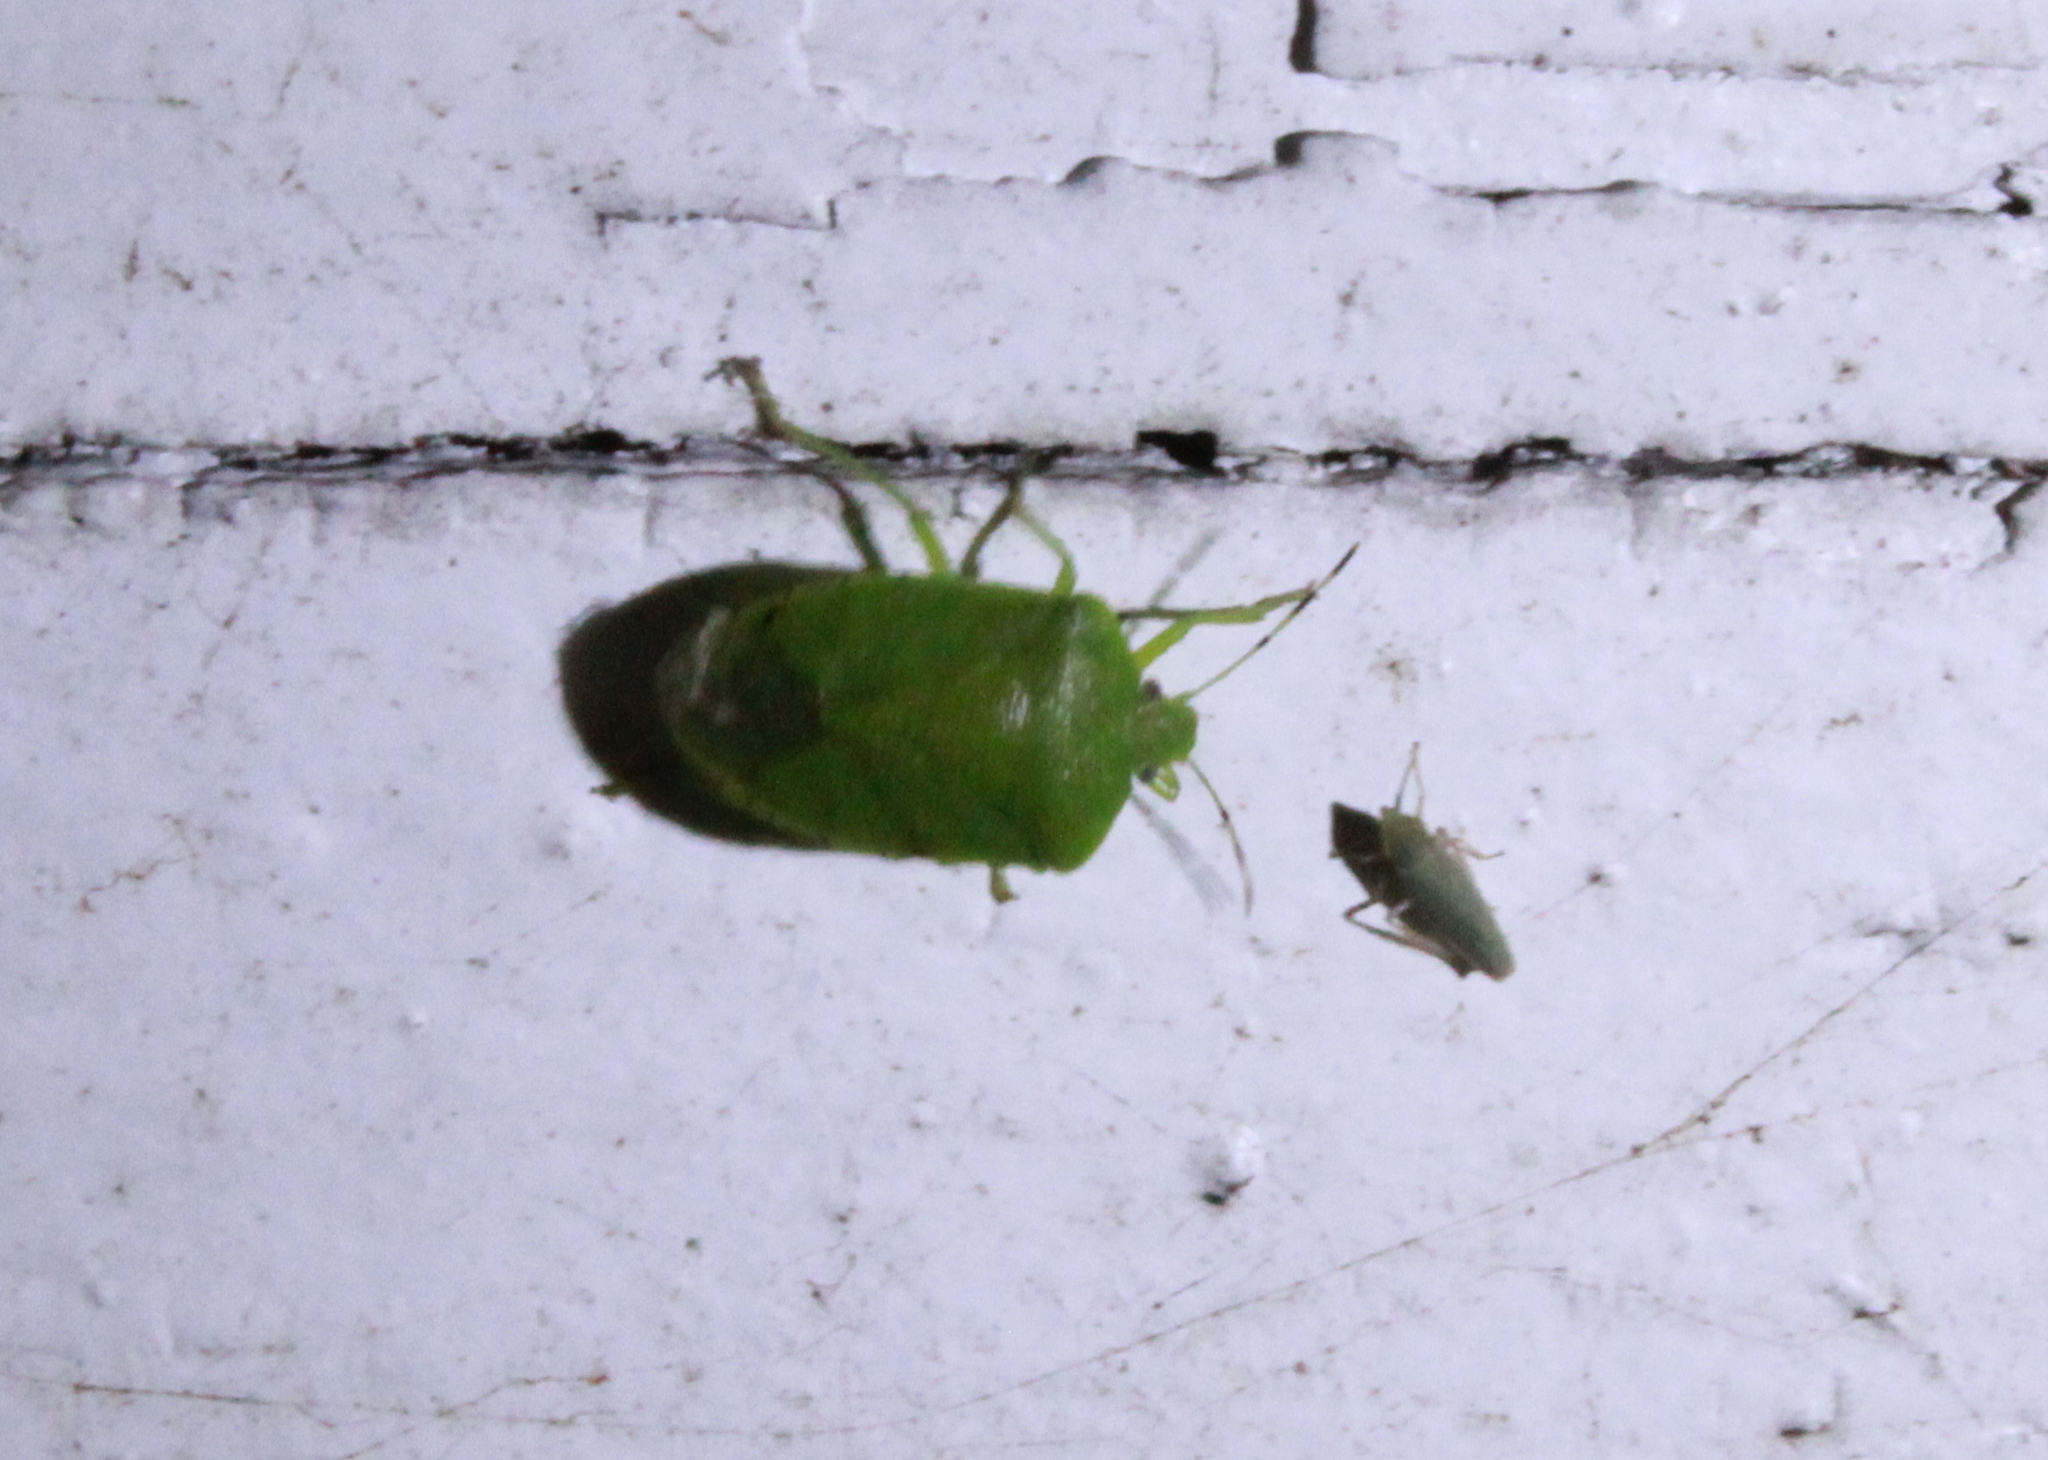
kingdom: Animalia
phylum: Arthropoda
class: Insecta
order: Hemiptera
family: Pentatomidae
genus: Chinavia
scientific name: Chinavia hilaris
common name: Green stink bug
